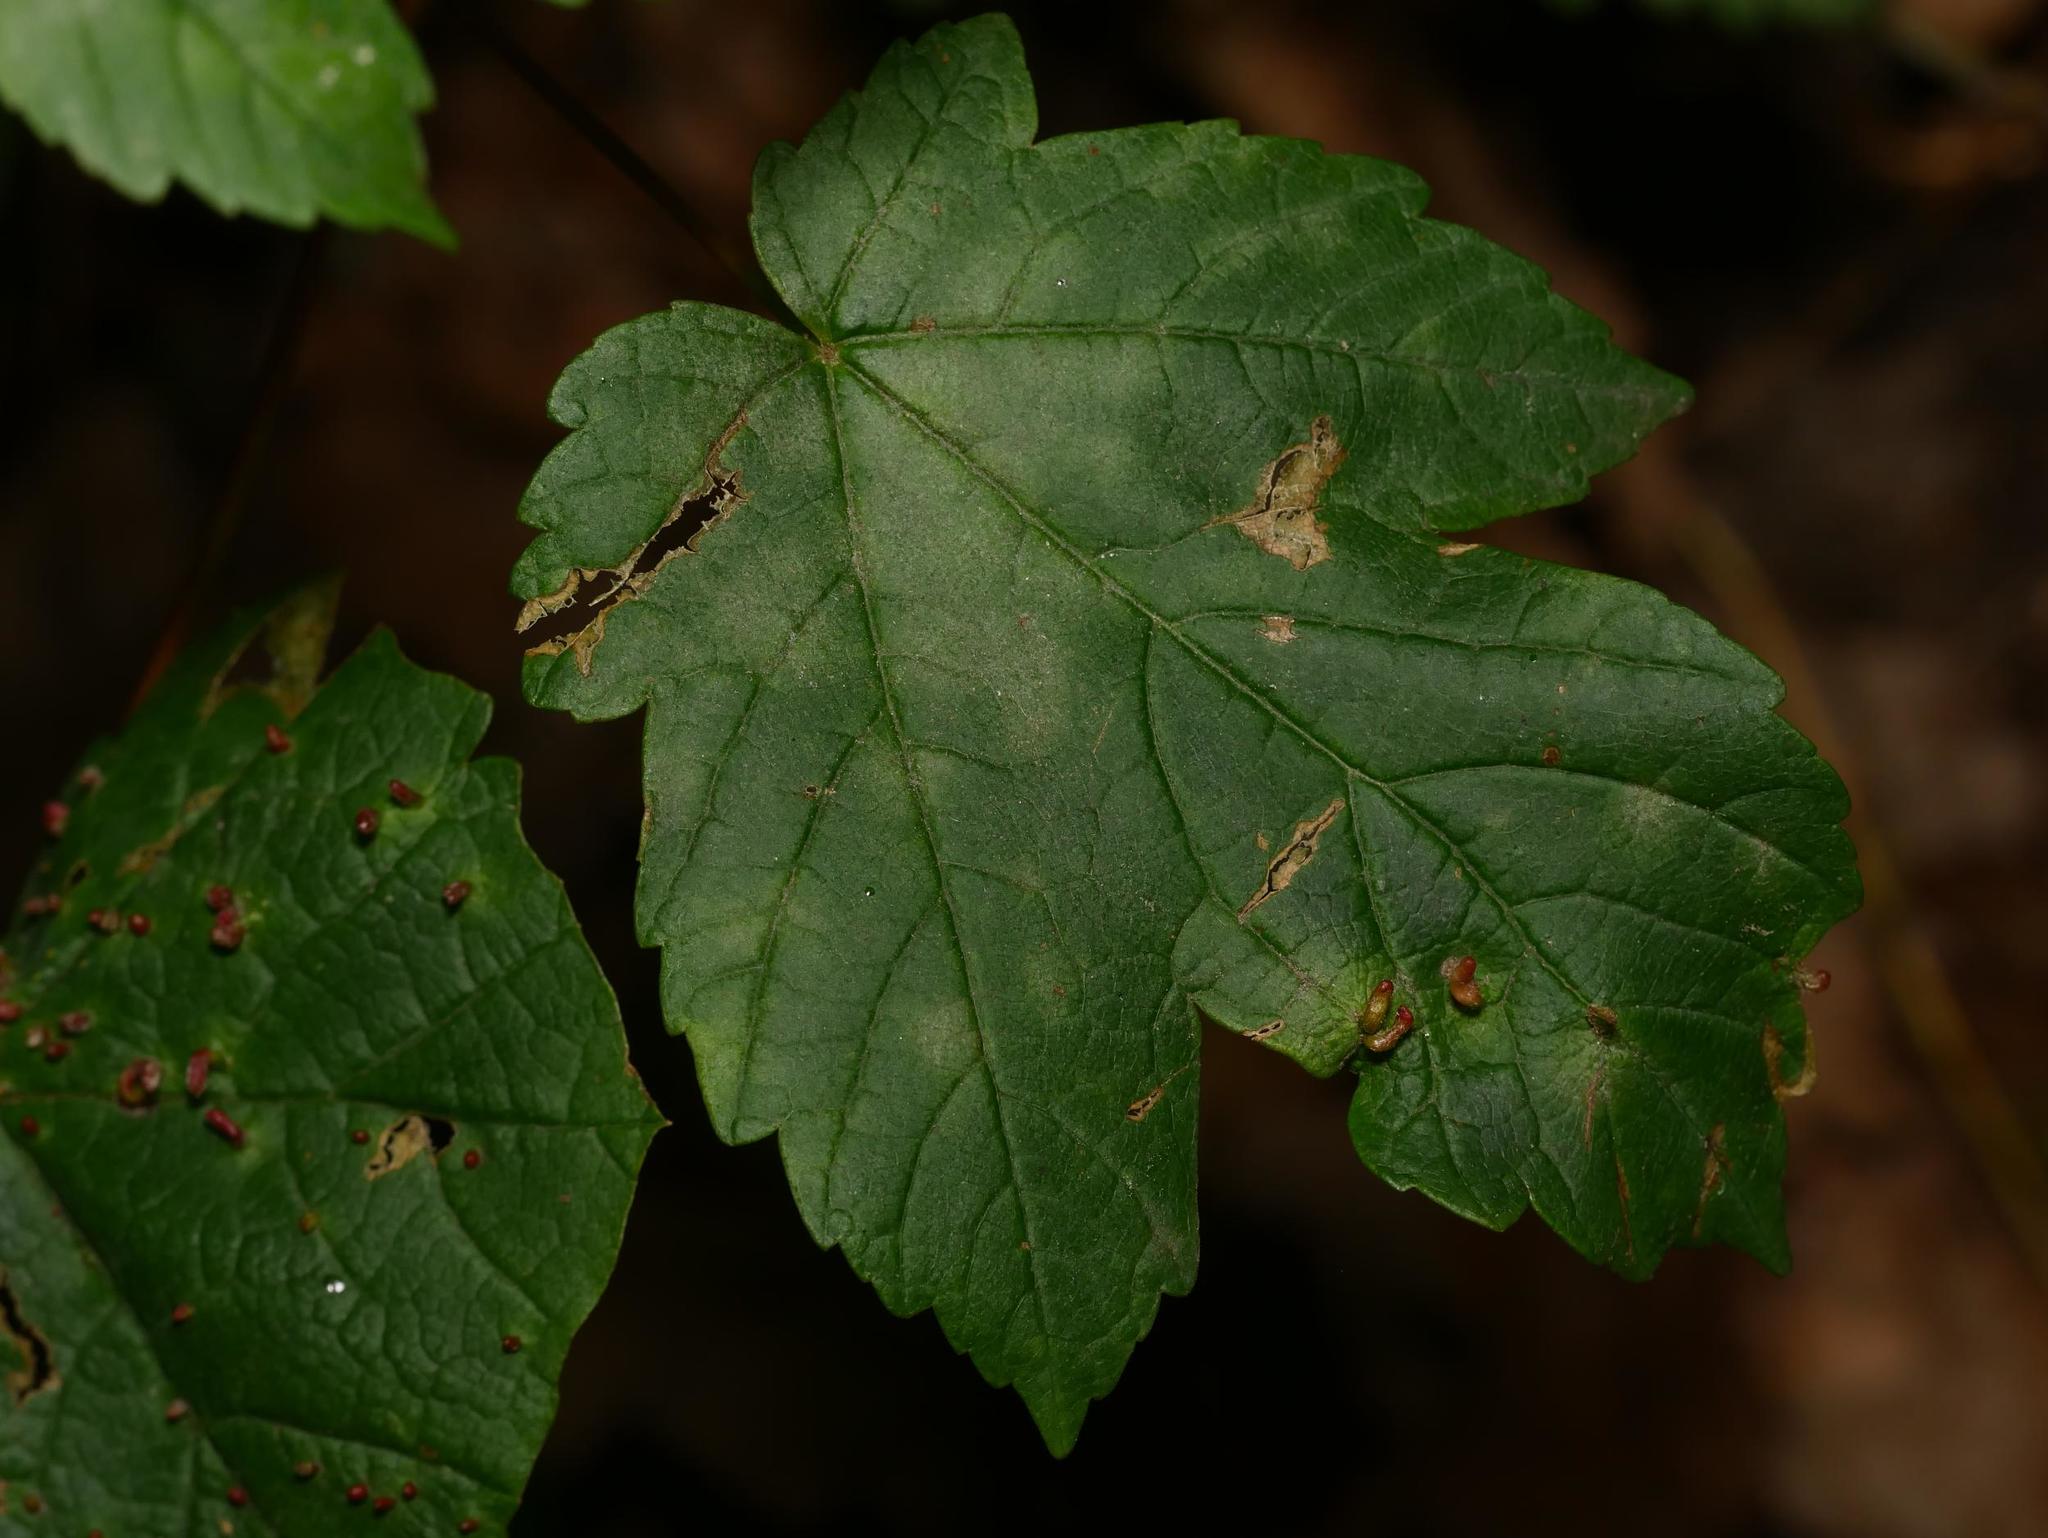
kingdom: Plantae
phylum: Tracheophyta
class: Magnoliopsida
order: Sapindales
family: Sapindaceae
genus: Acer
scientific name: Acer pseudoplatanus
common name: Sycamore
